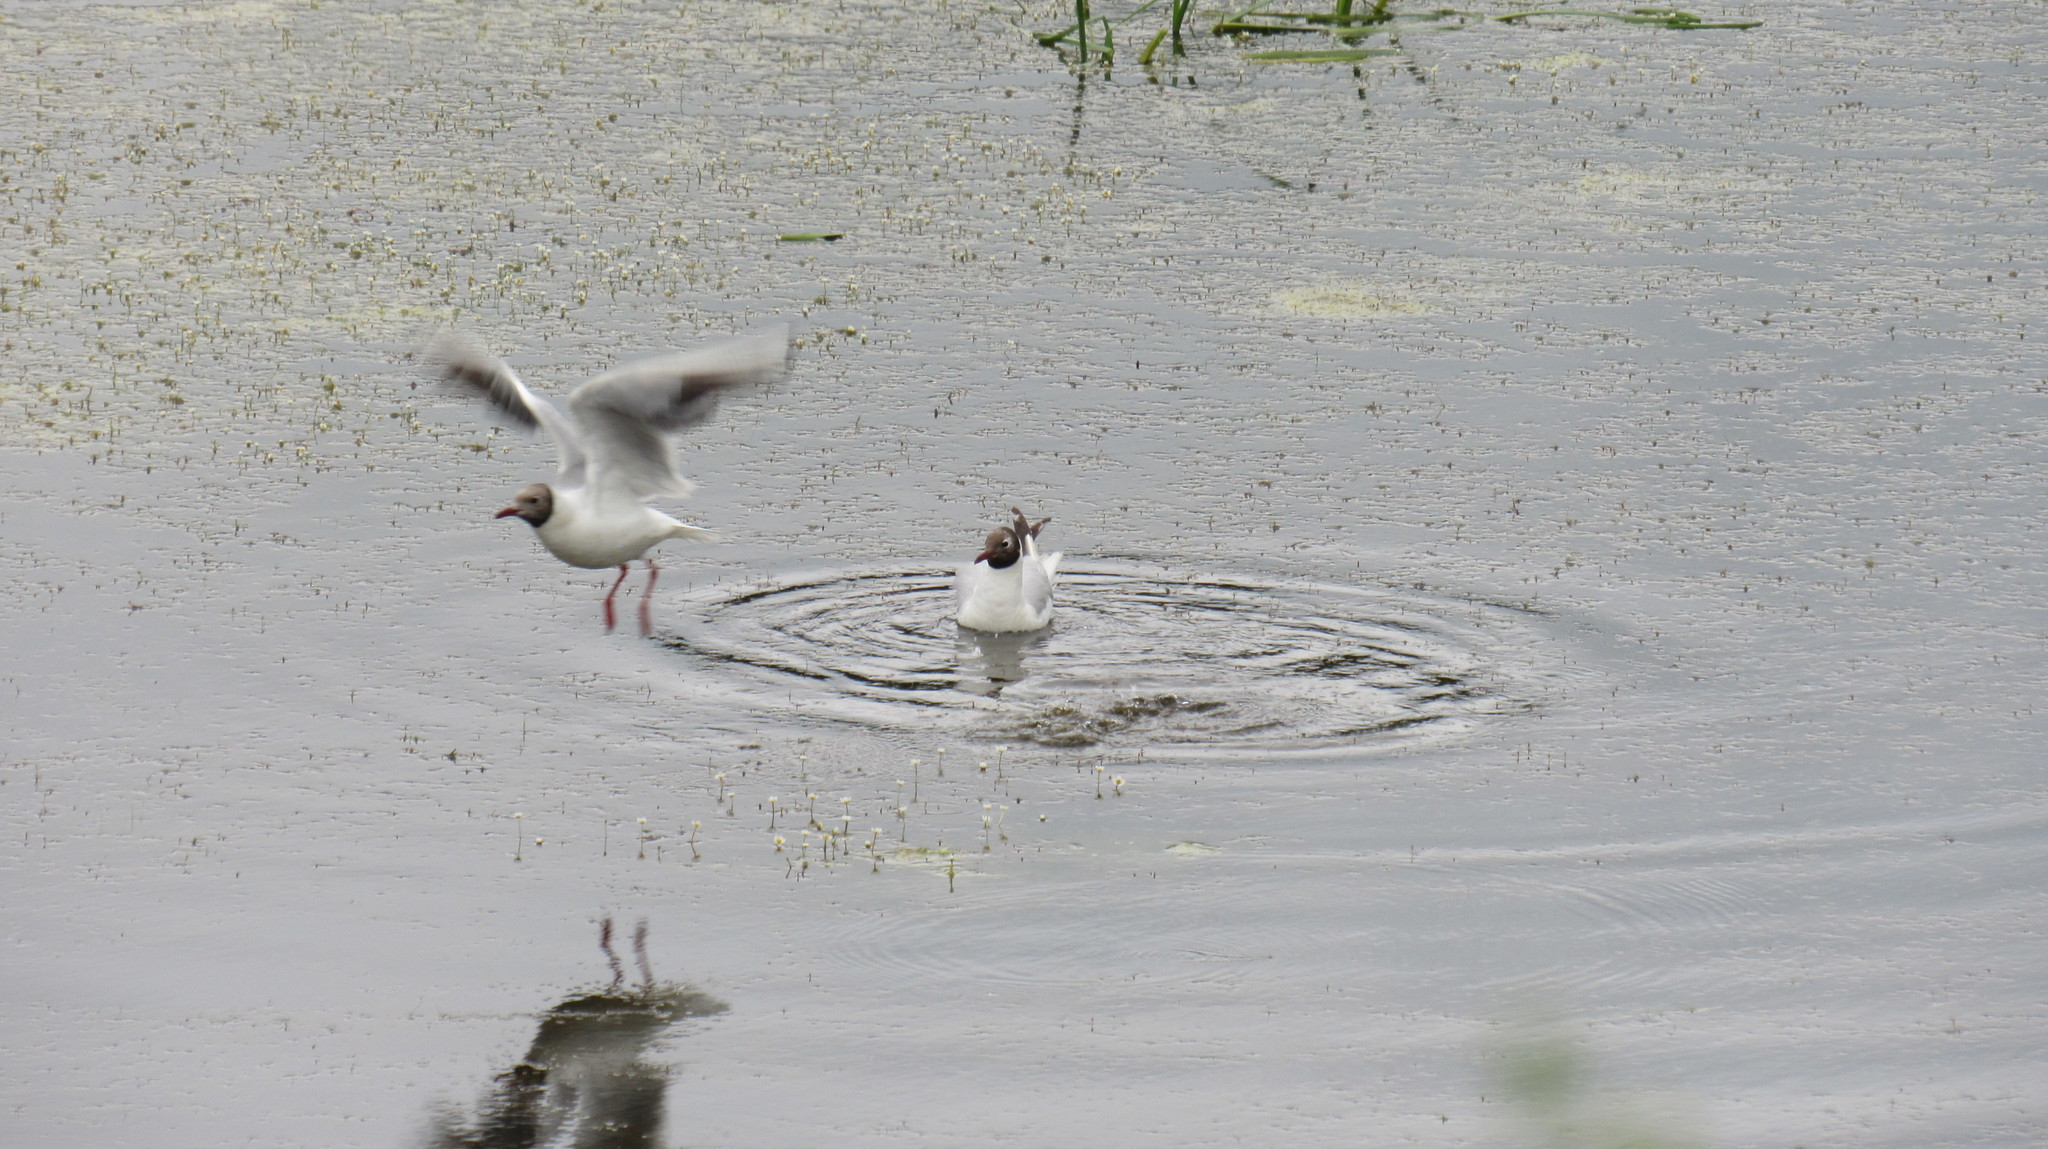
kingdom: Animalia
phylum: Chordata
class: Aves
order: Charadriiformes
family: Laridae
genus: Chroicocephalus
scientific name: Chroicocephalus ridibundus
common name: Black-headed gull
